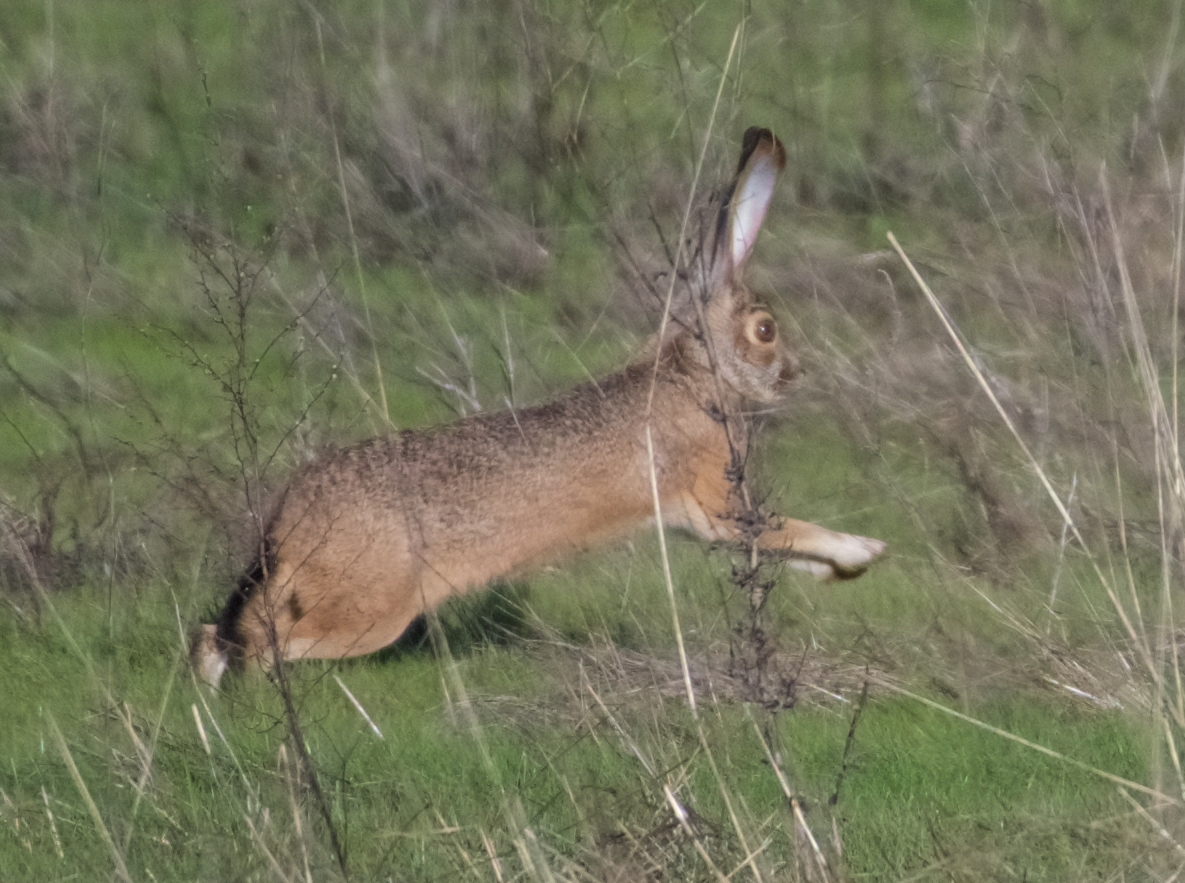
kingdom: Animalia
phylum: Chordata
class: Mammalia
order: Lagomorpha
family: Leporidae
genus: Lepus
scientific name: Lepus californicus
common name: Black-tailed jackrabbit
